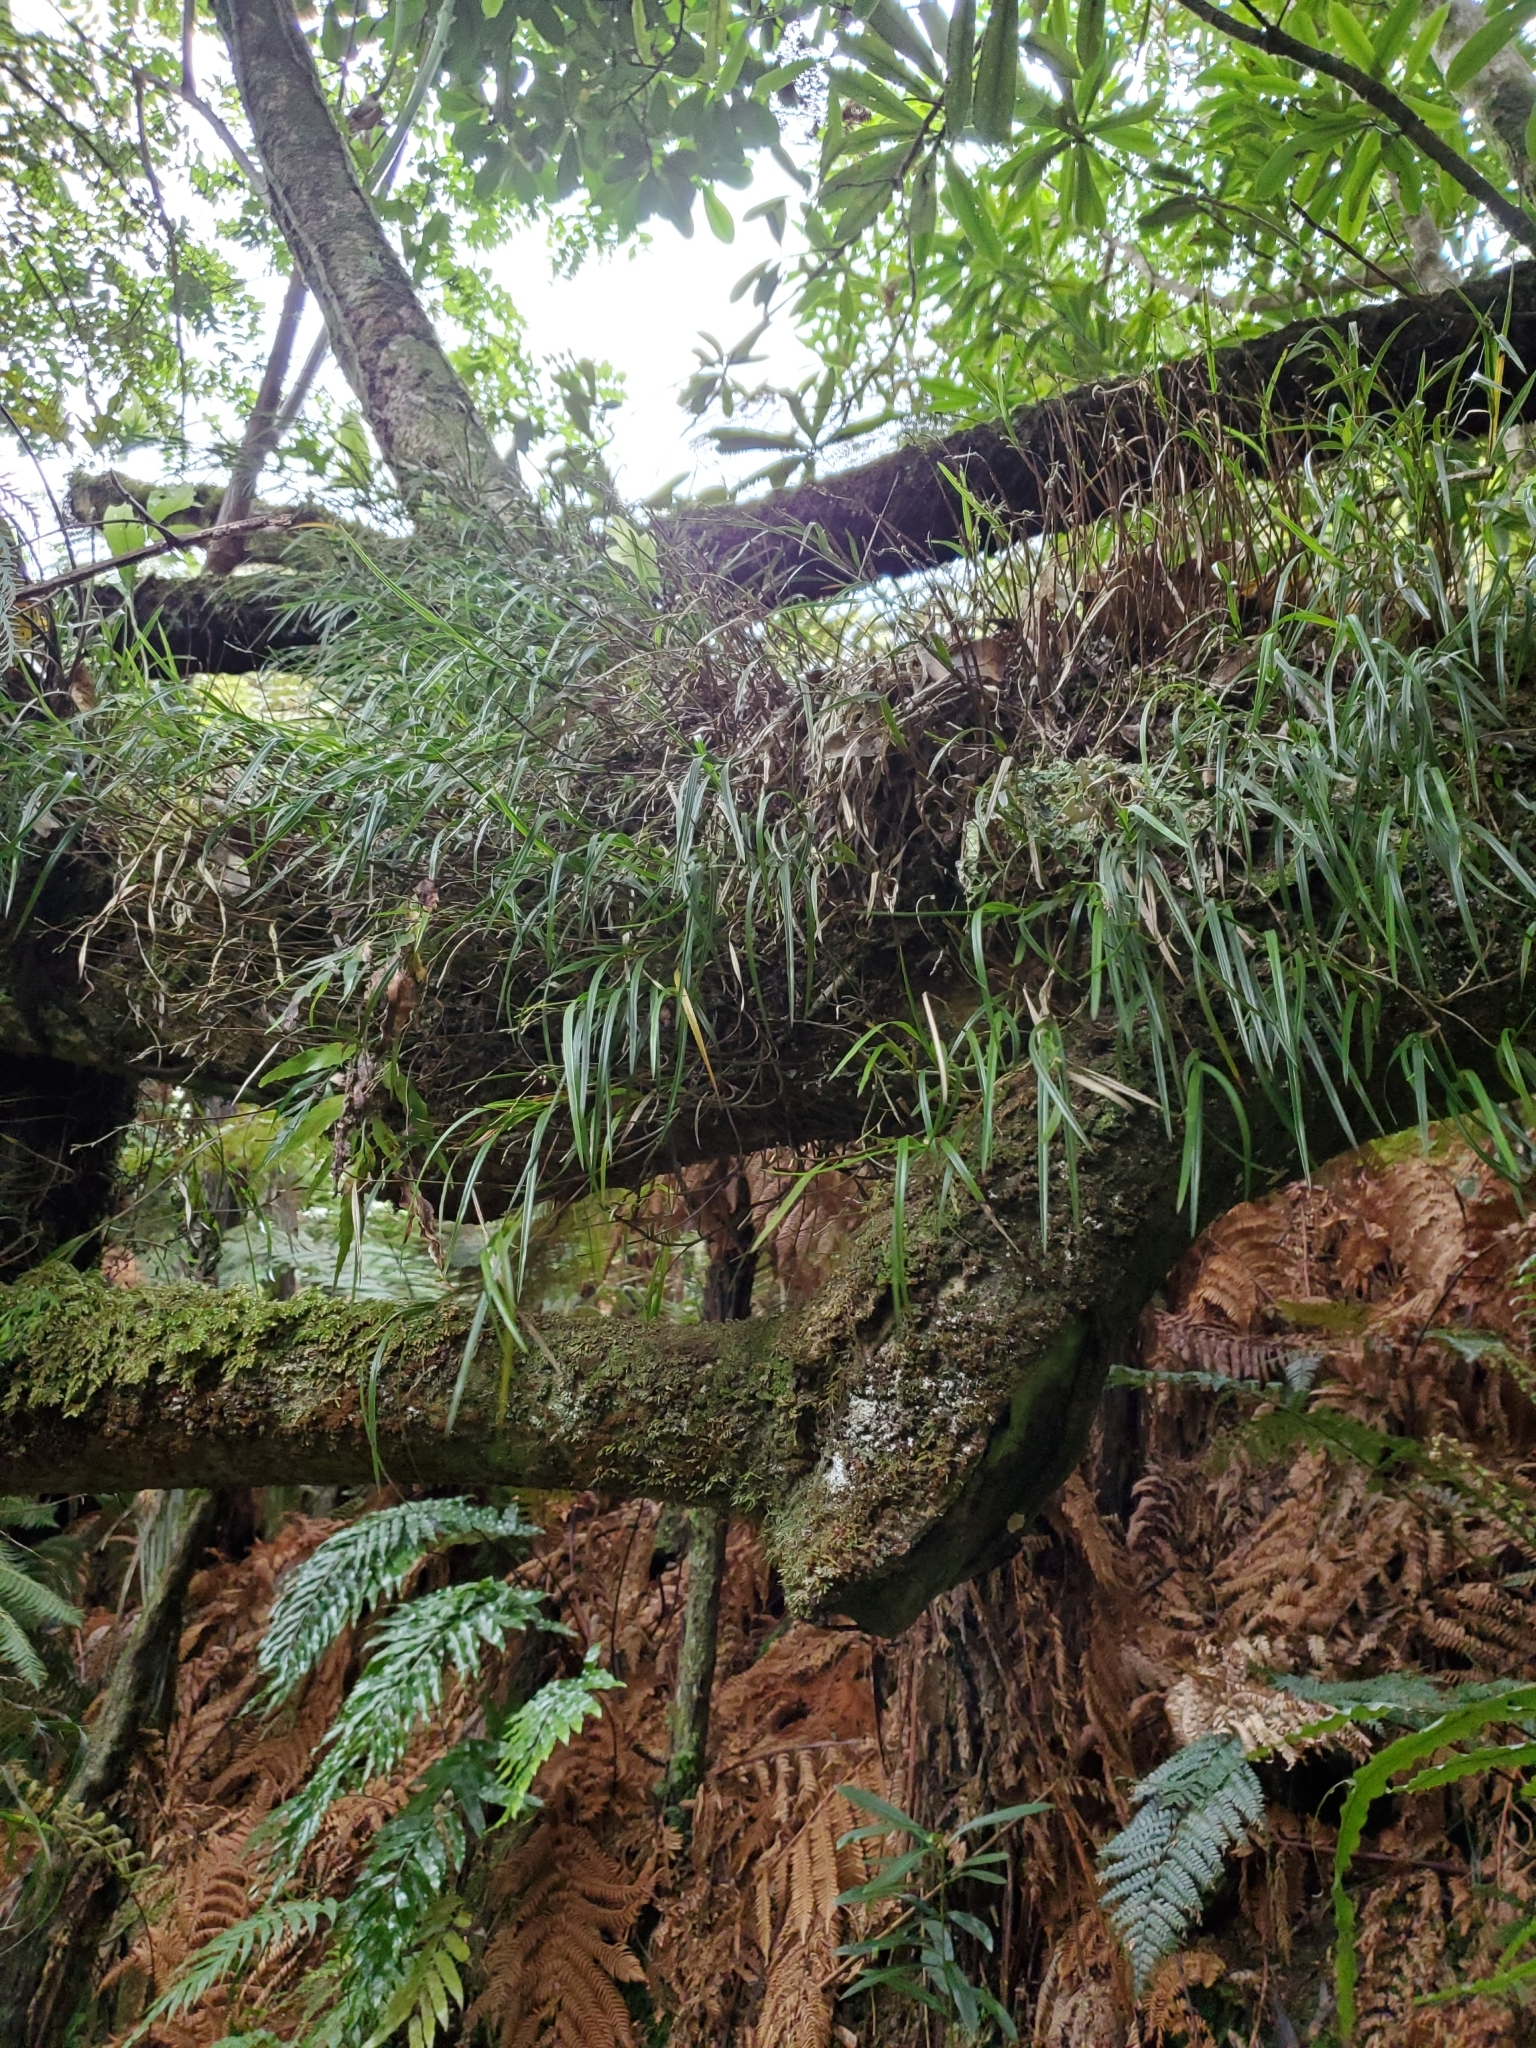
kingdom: Plantae
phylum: Tracheophyta
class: Liliopsida
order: Asparagales
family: Orchidaceae
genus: Earina
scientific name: Earina mucronata
